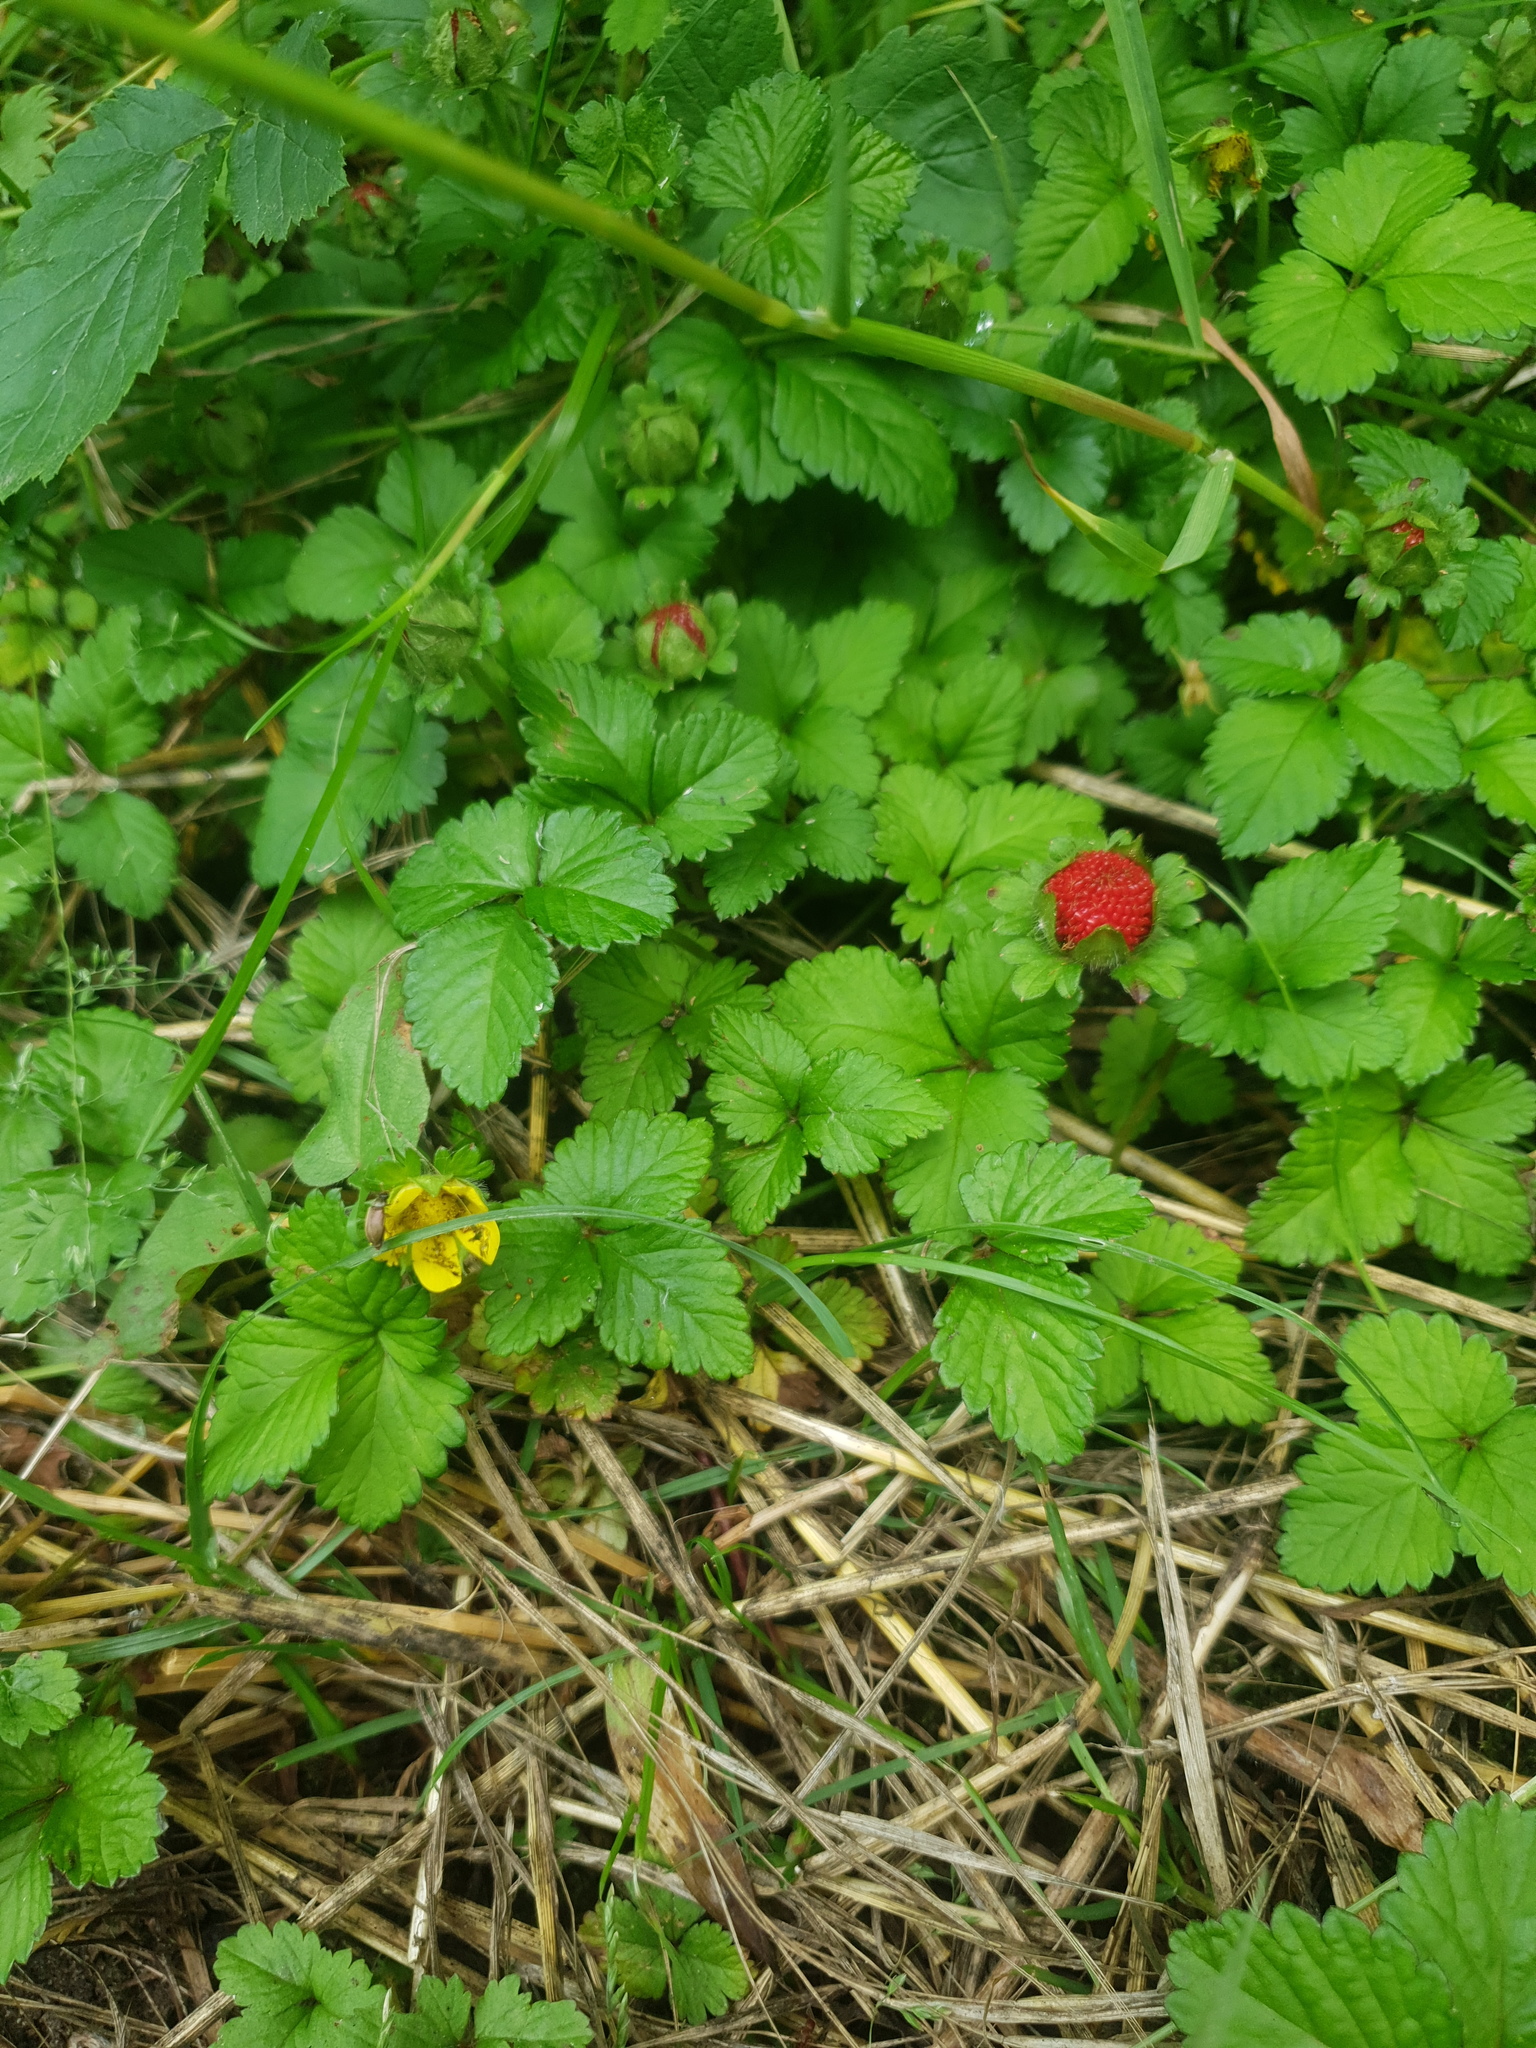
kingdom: Plantae
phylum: Tracheophyta
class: Magnoliopsida
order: Rosales
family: Rosaceae
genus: Potentilla
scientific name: Potentilla indica
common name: Yellow-flowered strawberry
